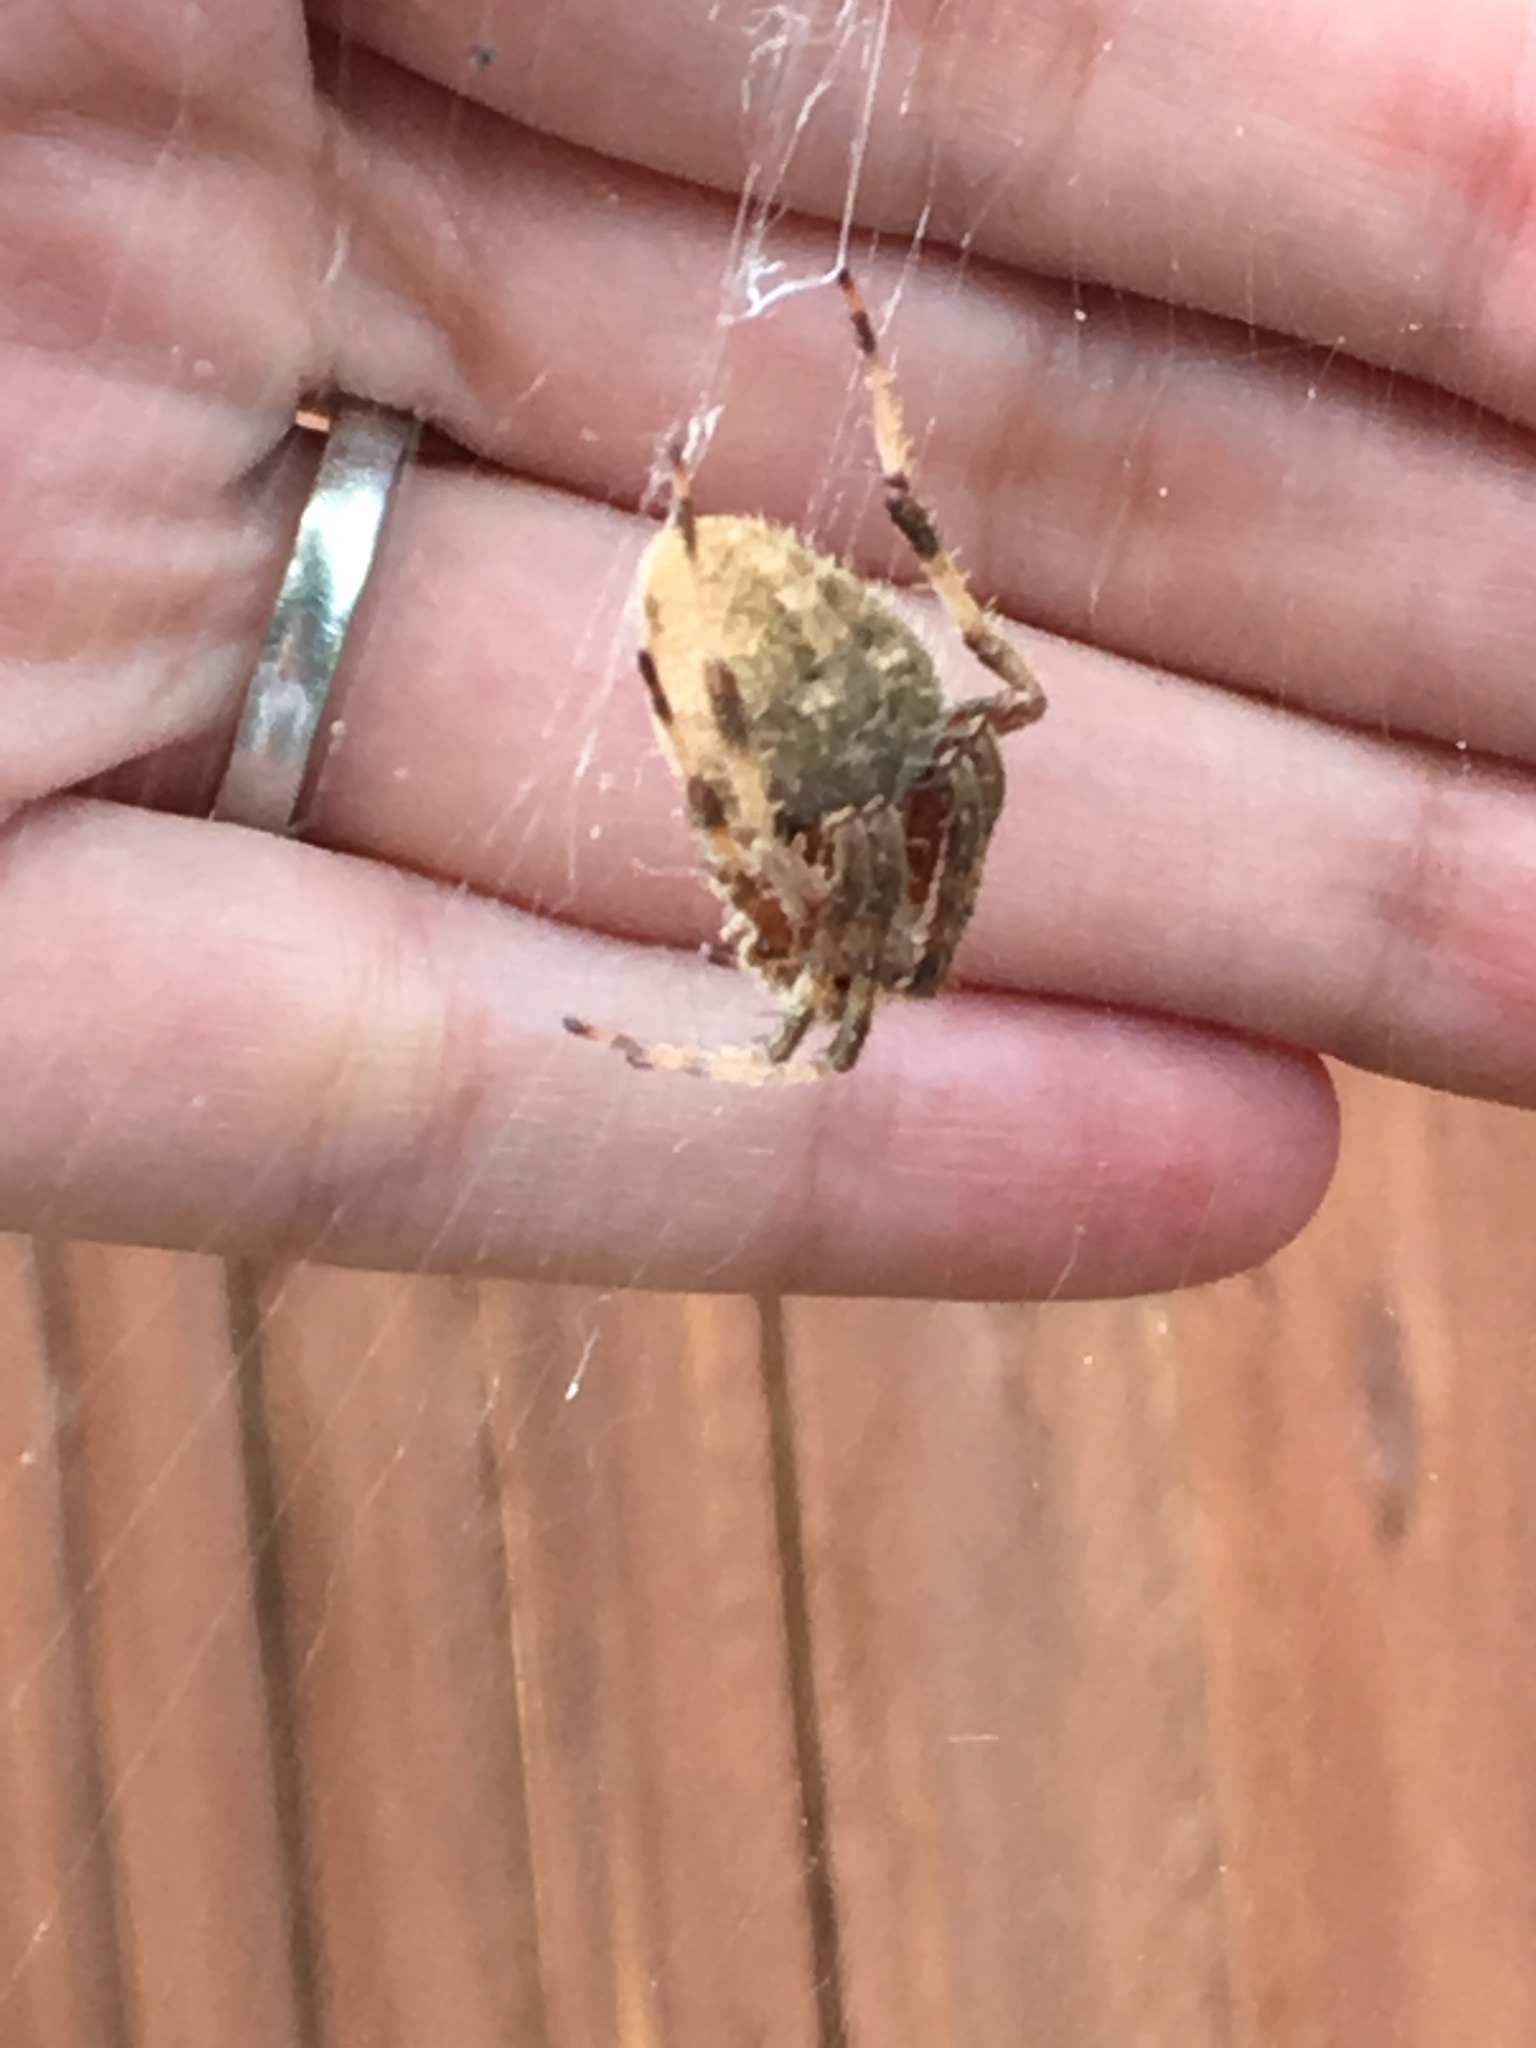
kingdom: Animalia
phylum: Arthropoda
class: Arachnida
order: Araneae
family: Araneidae
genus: Neoscona
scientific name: Neoscona crucifera
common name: Spotted orbweaver
